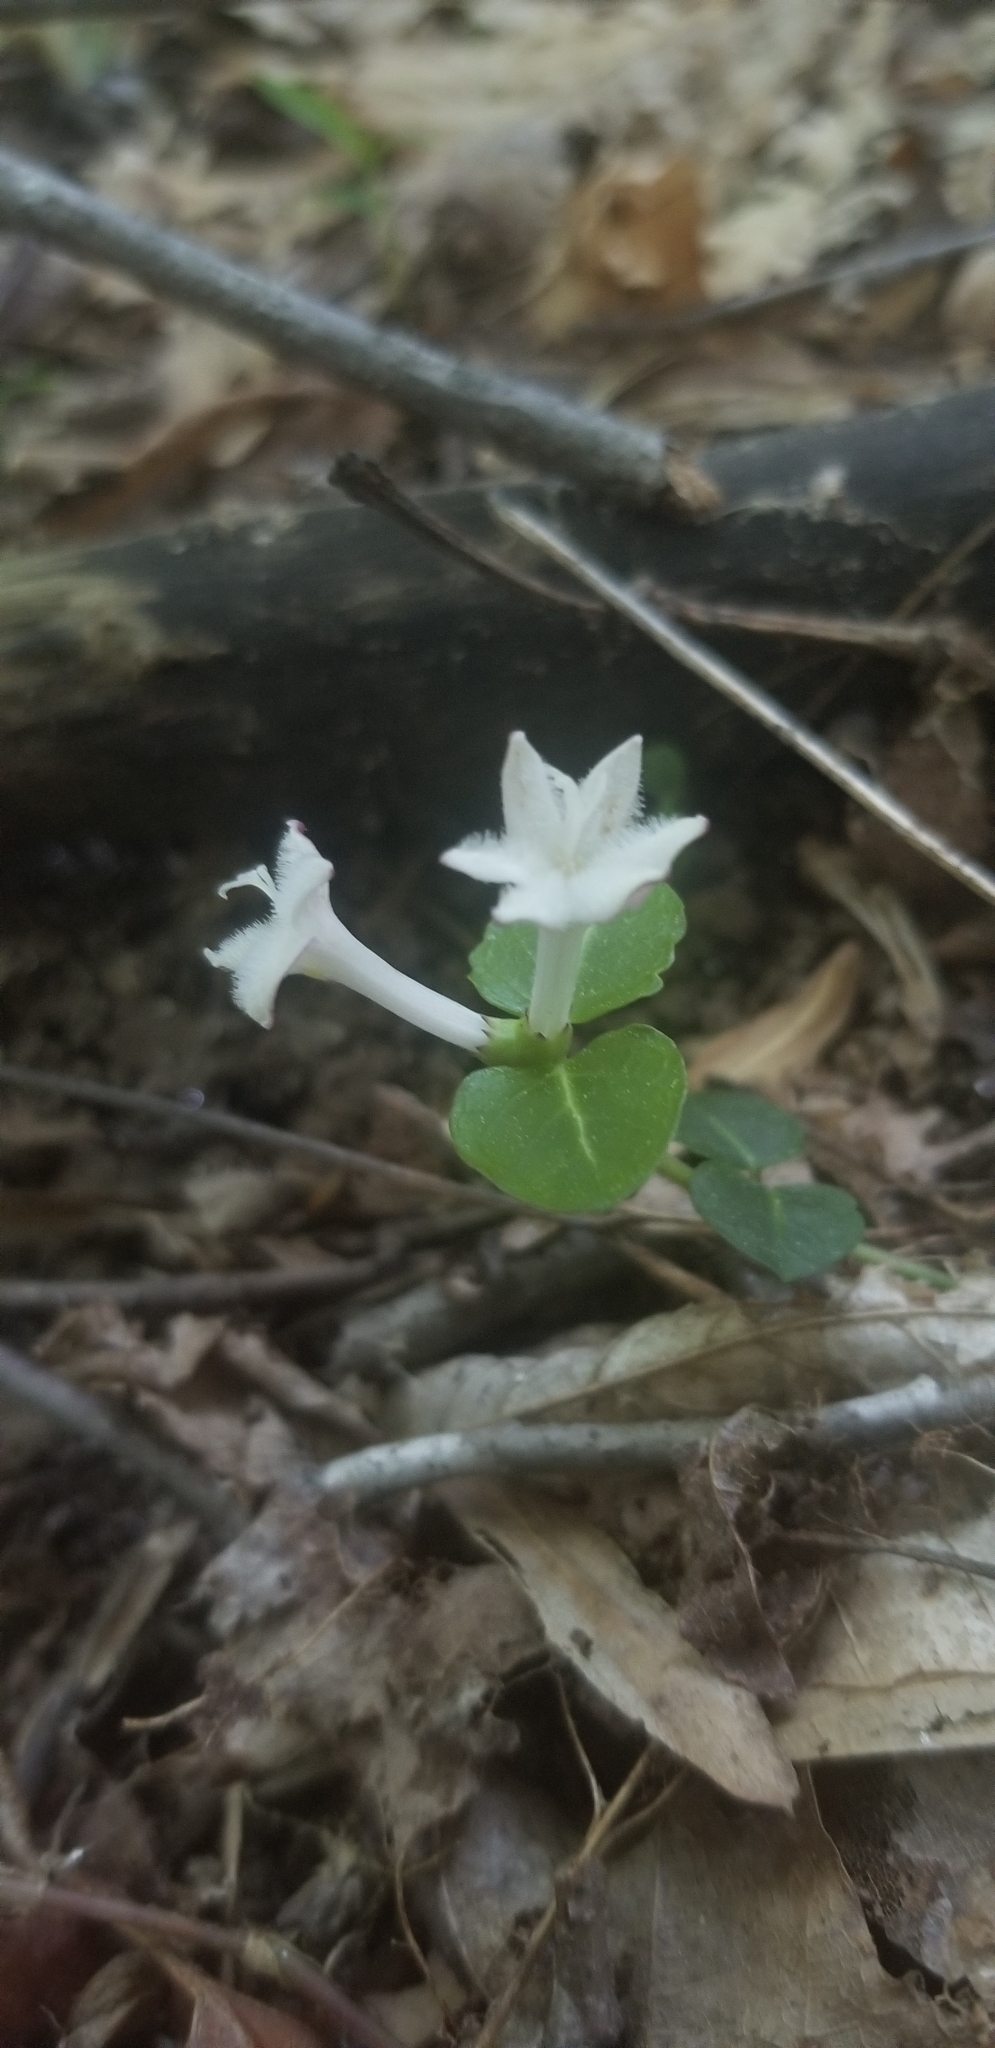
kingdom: Plantae
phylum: Tracheophyta
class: Magnoliopsida
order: Gentianales
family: Rubiaceae
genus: Mitchella
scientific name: Mitchella repens
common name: Partridge-berry
